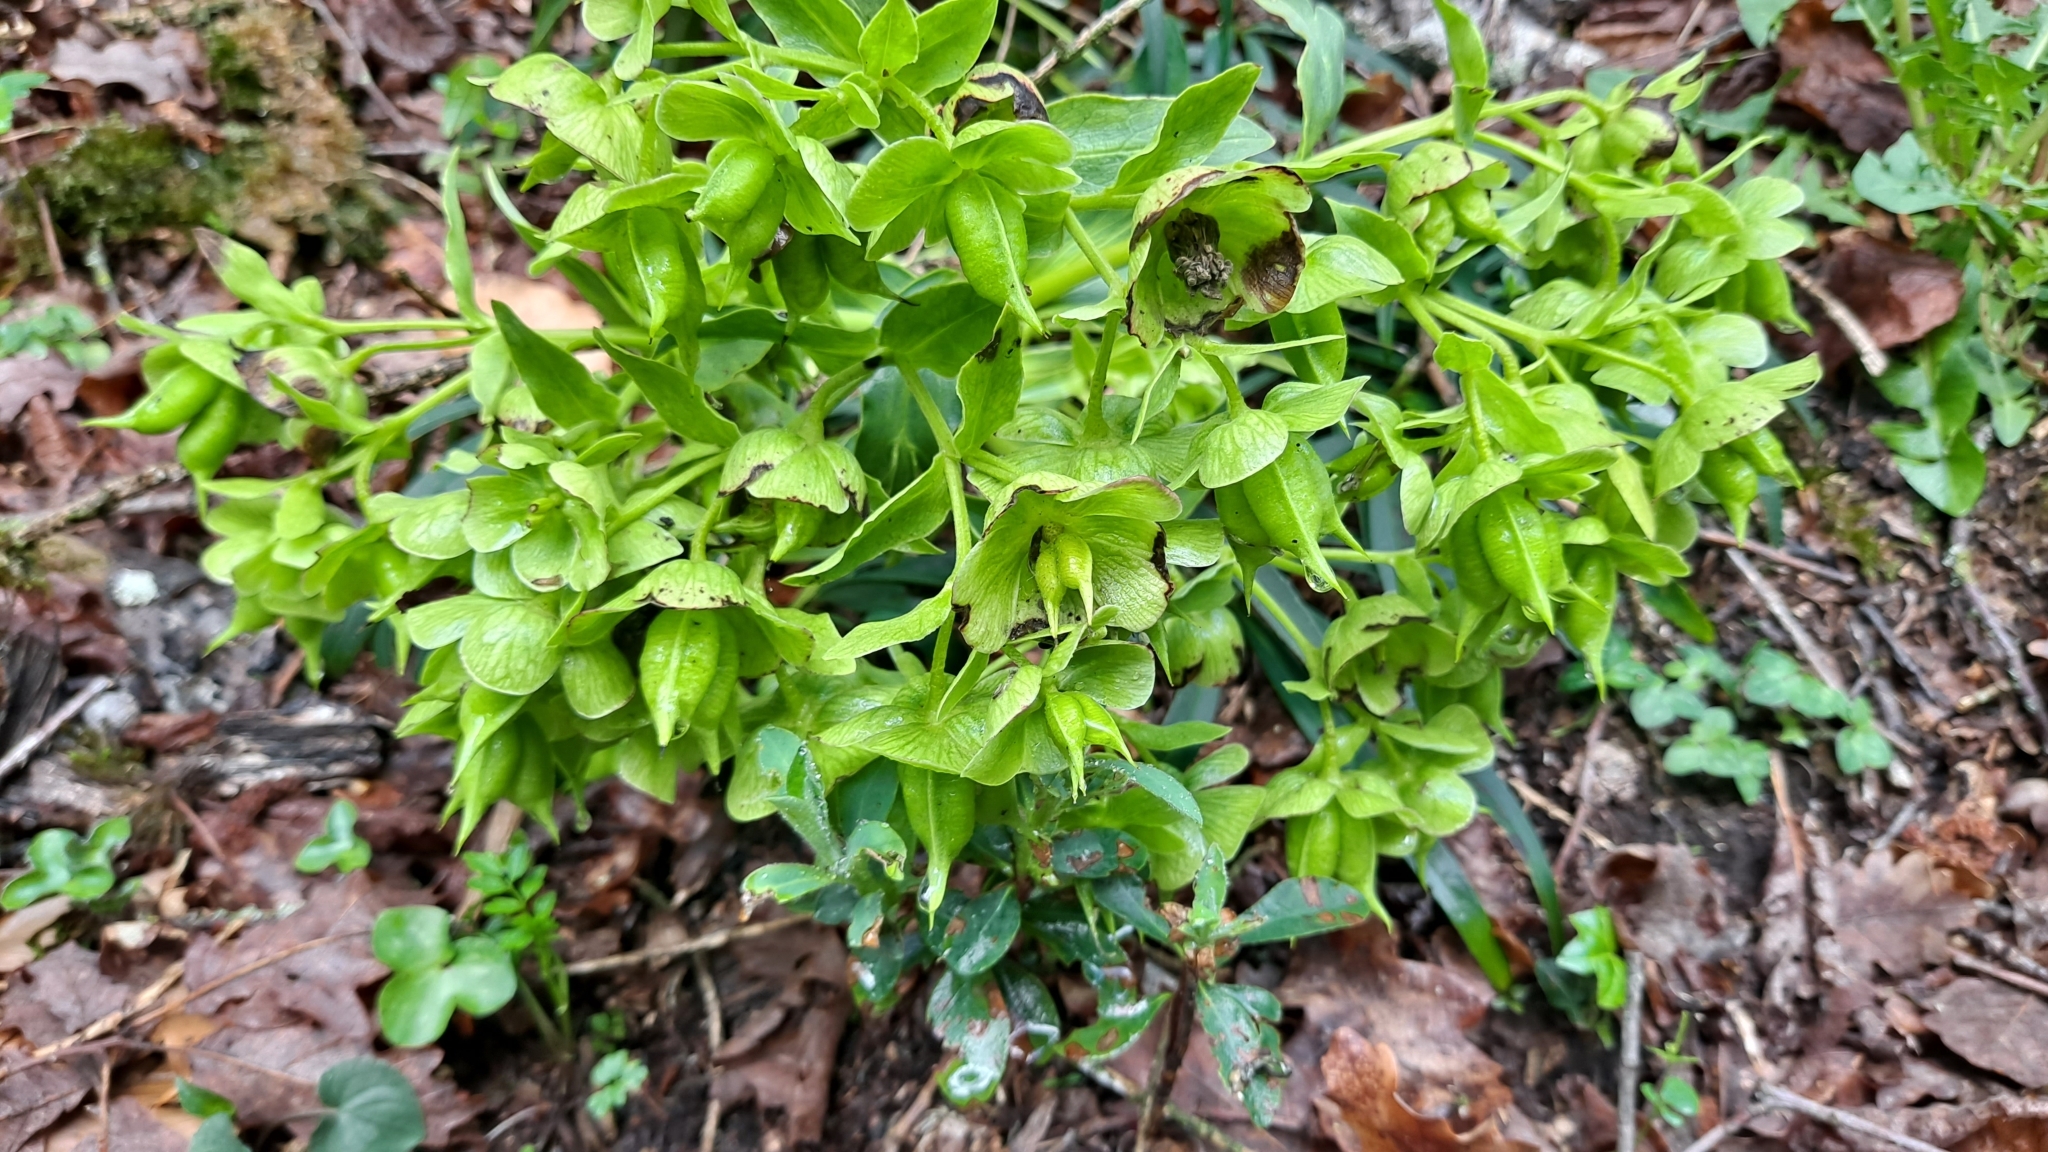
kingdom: Plantae
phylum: Tracheophyta
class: Magnoliopsida
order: Ranunculales
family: Ranunculaceae
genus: Helleborus
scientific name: Helleborus foetidus
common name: Stinking hellebore
